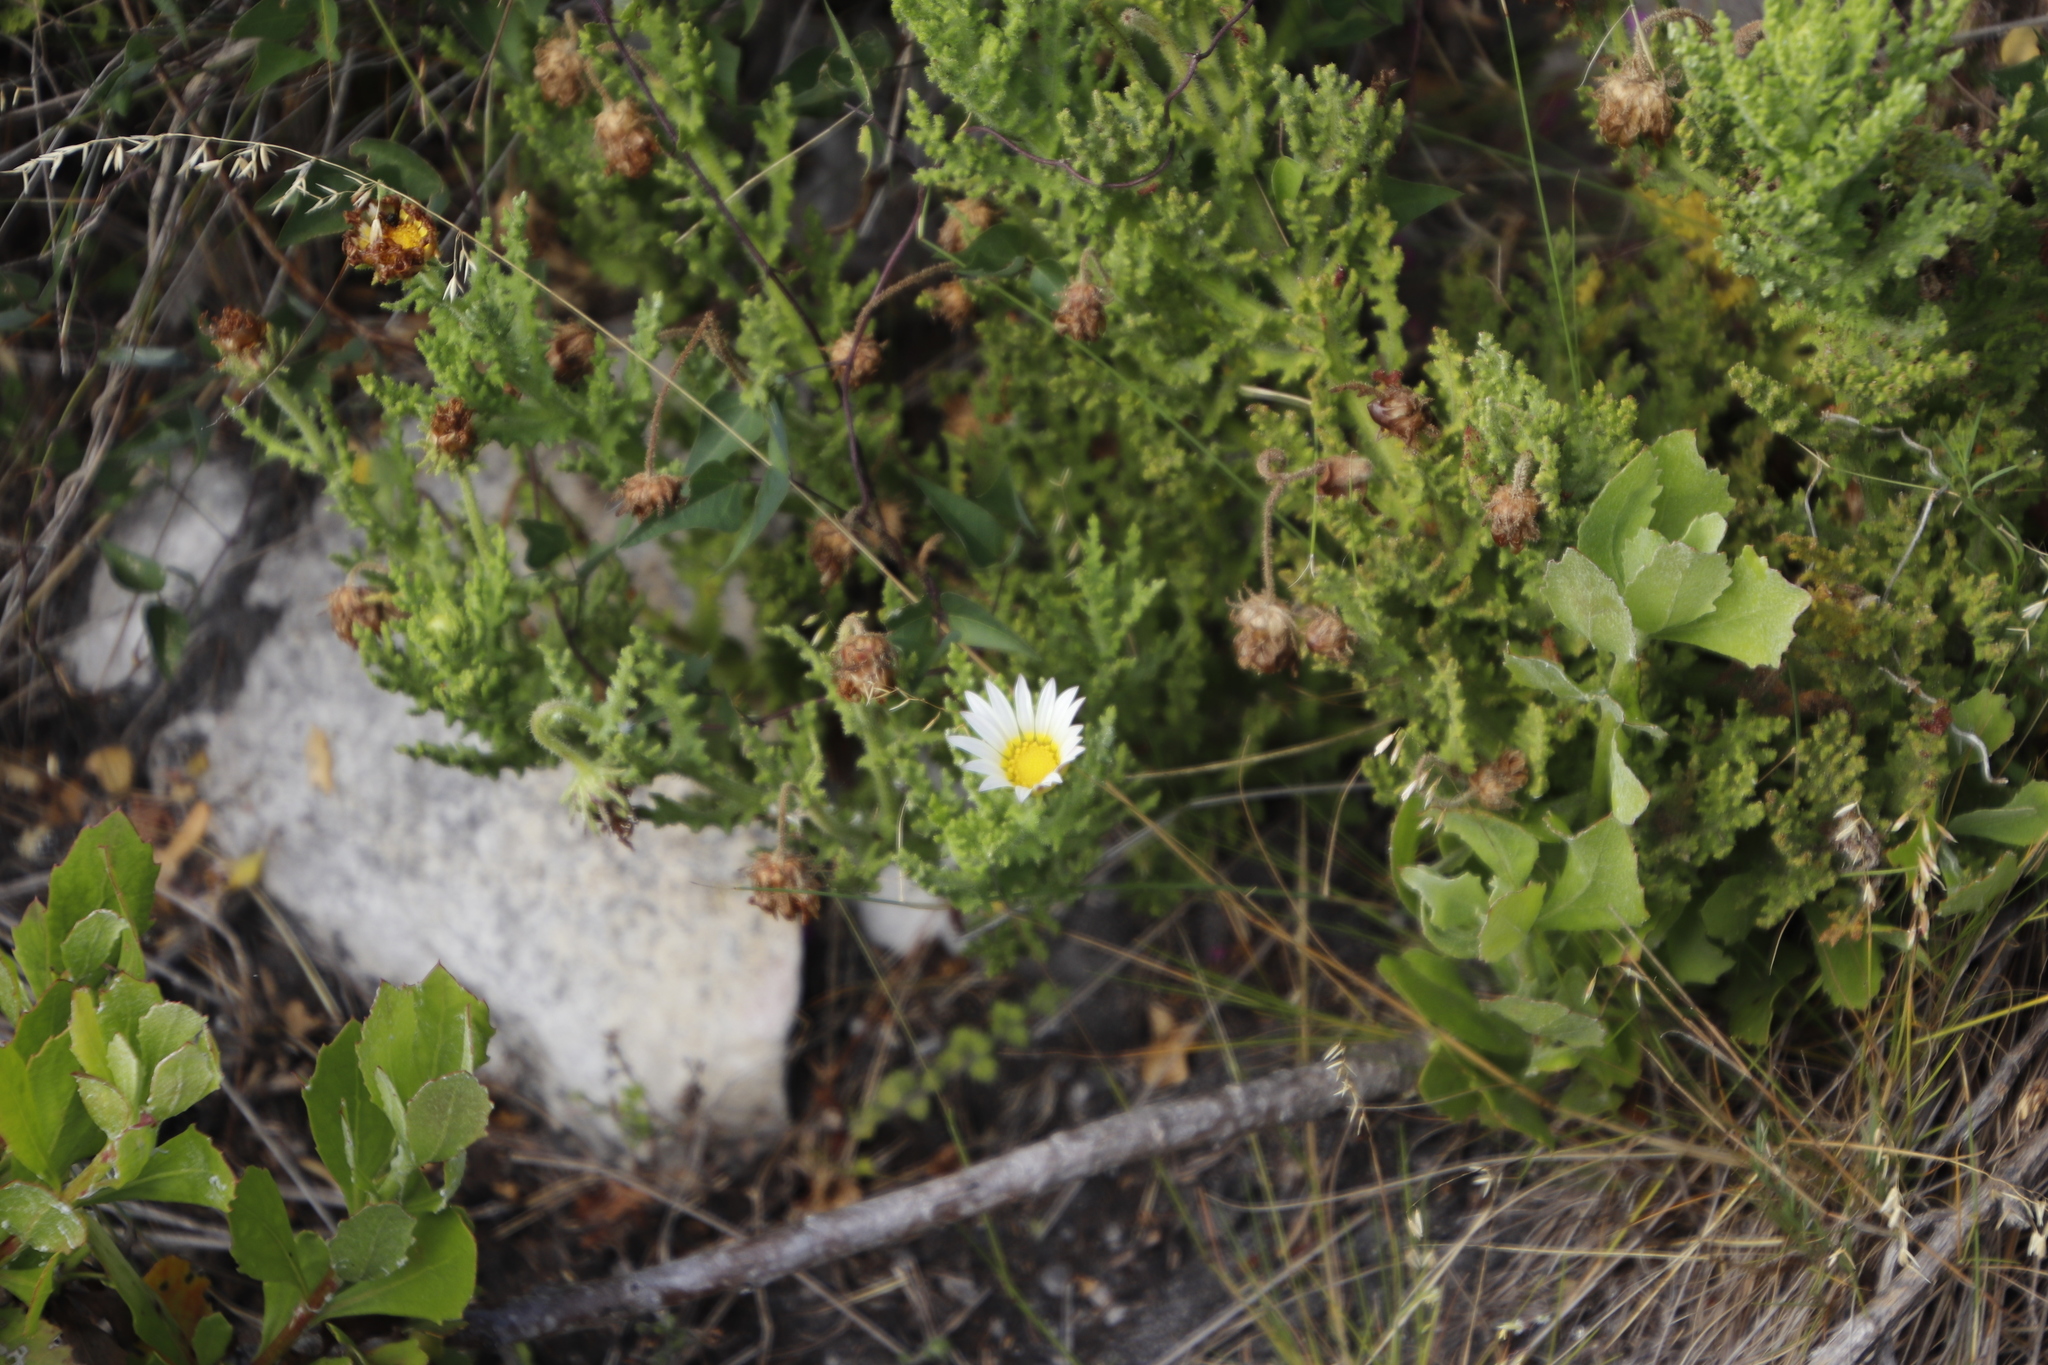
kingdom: Plantae
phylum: Tracheophyta
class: Magnoliopsida
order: Asterales
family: Asteraceae
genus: Arctotis
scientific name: Arctotis aspera
